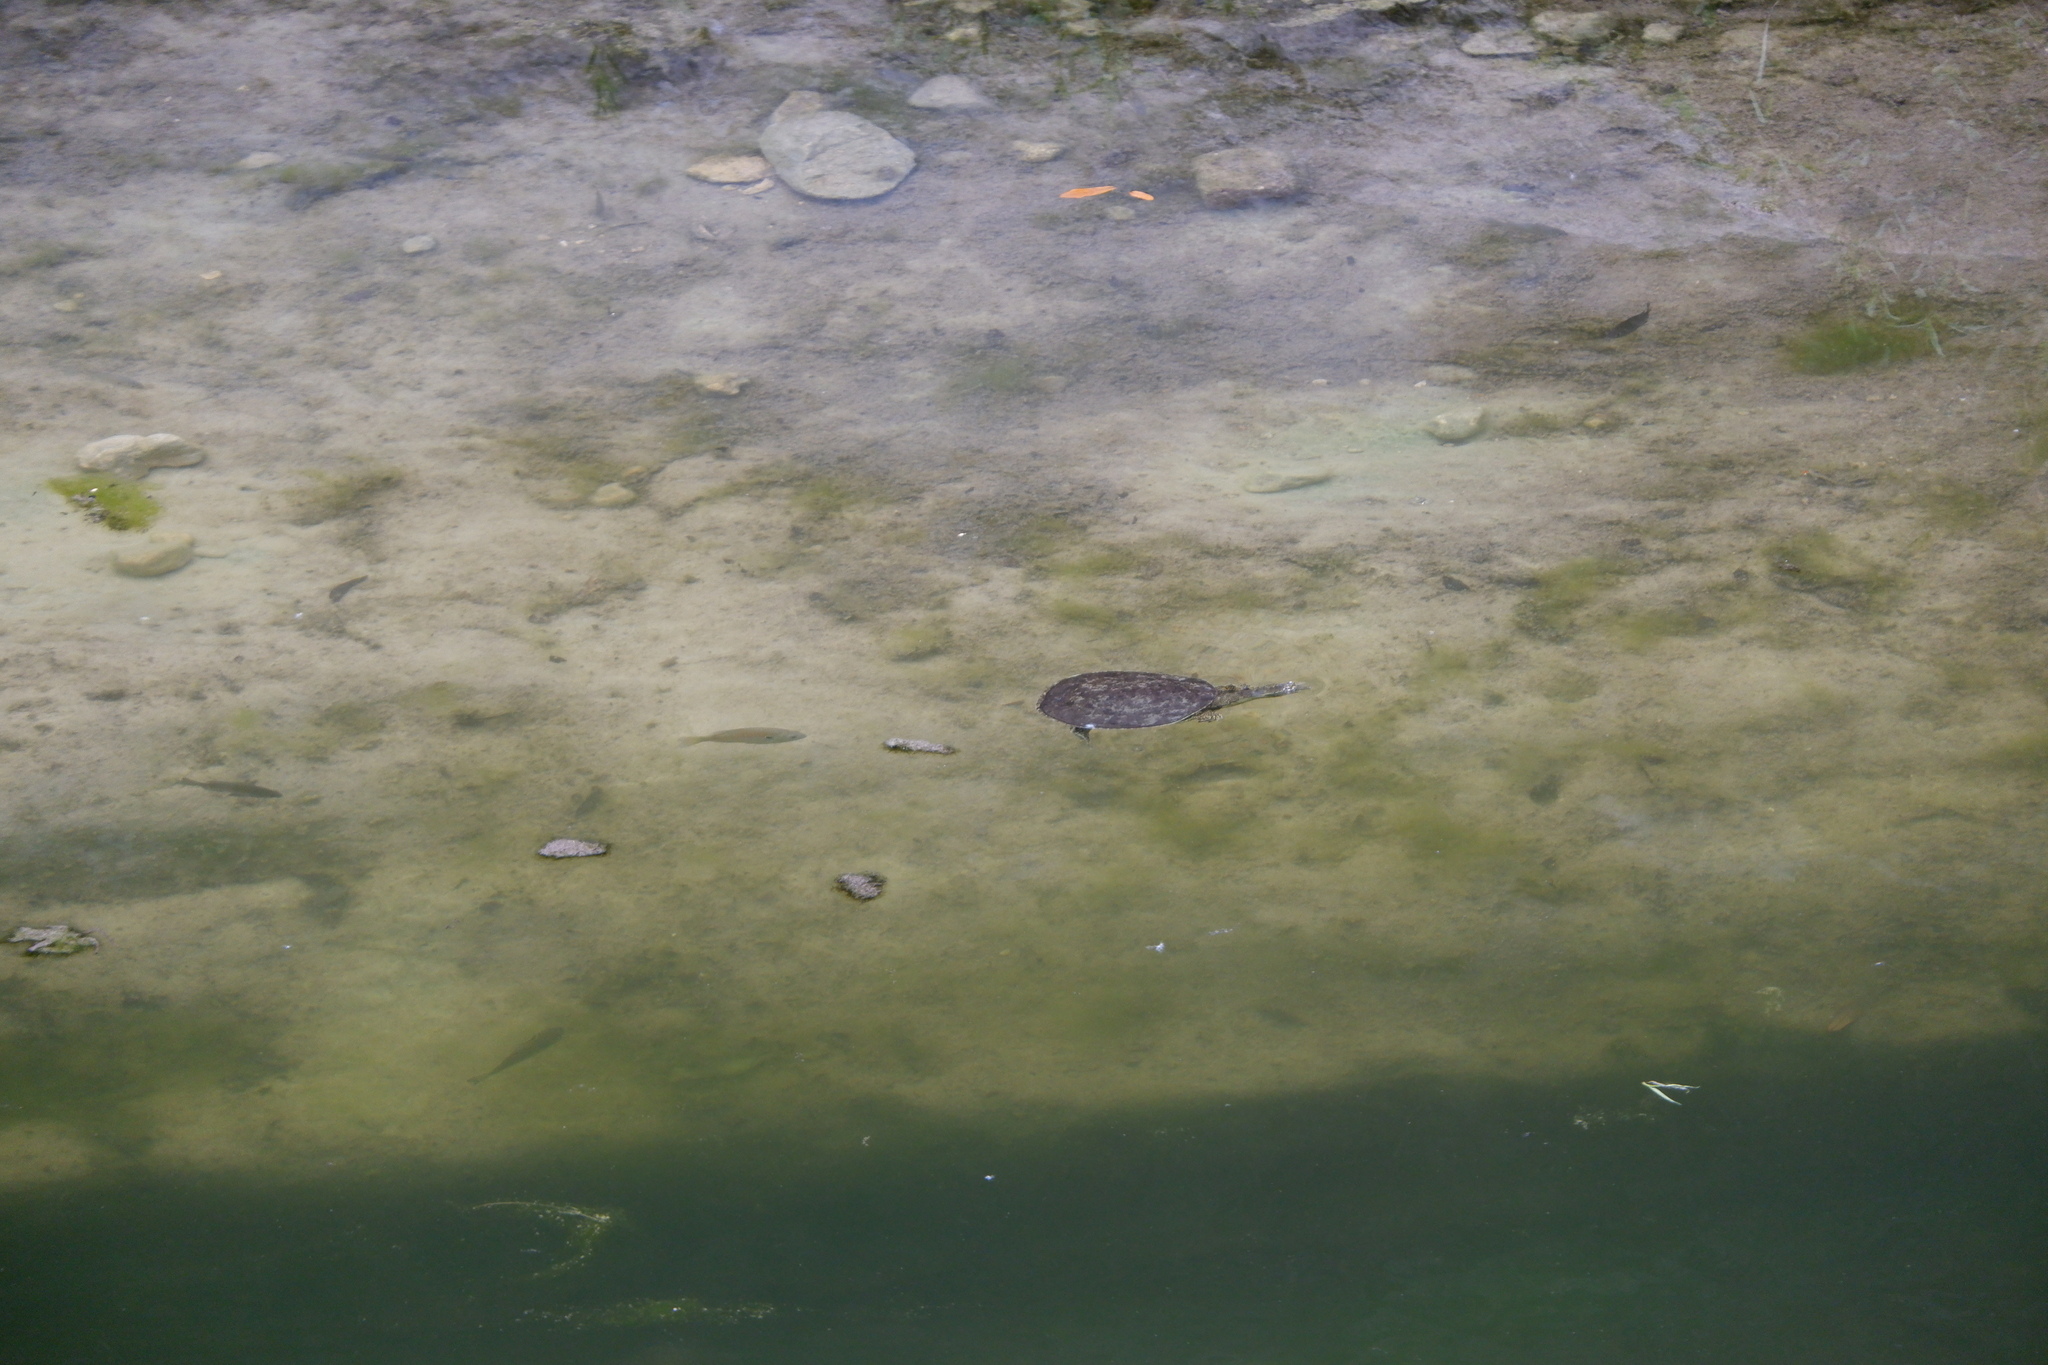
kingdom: Animalia
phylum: Chordata
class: Testudines
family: Trionychidae
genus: Apalone
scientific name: Apalone spinifera
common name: Spiny softshell turtle
